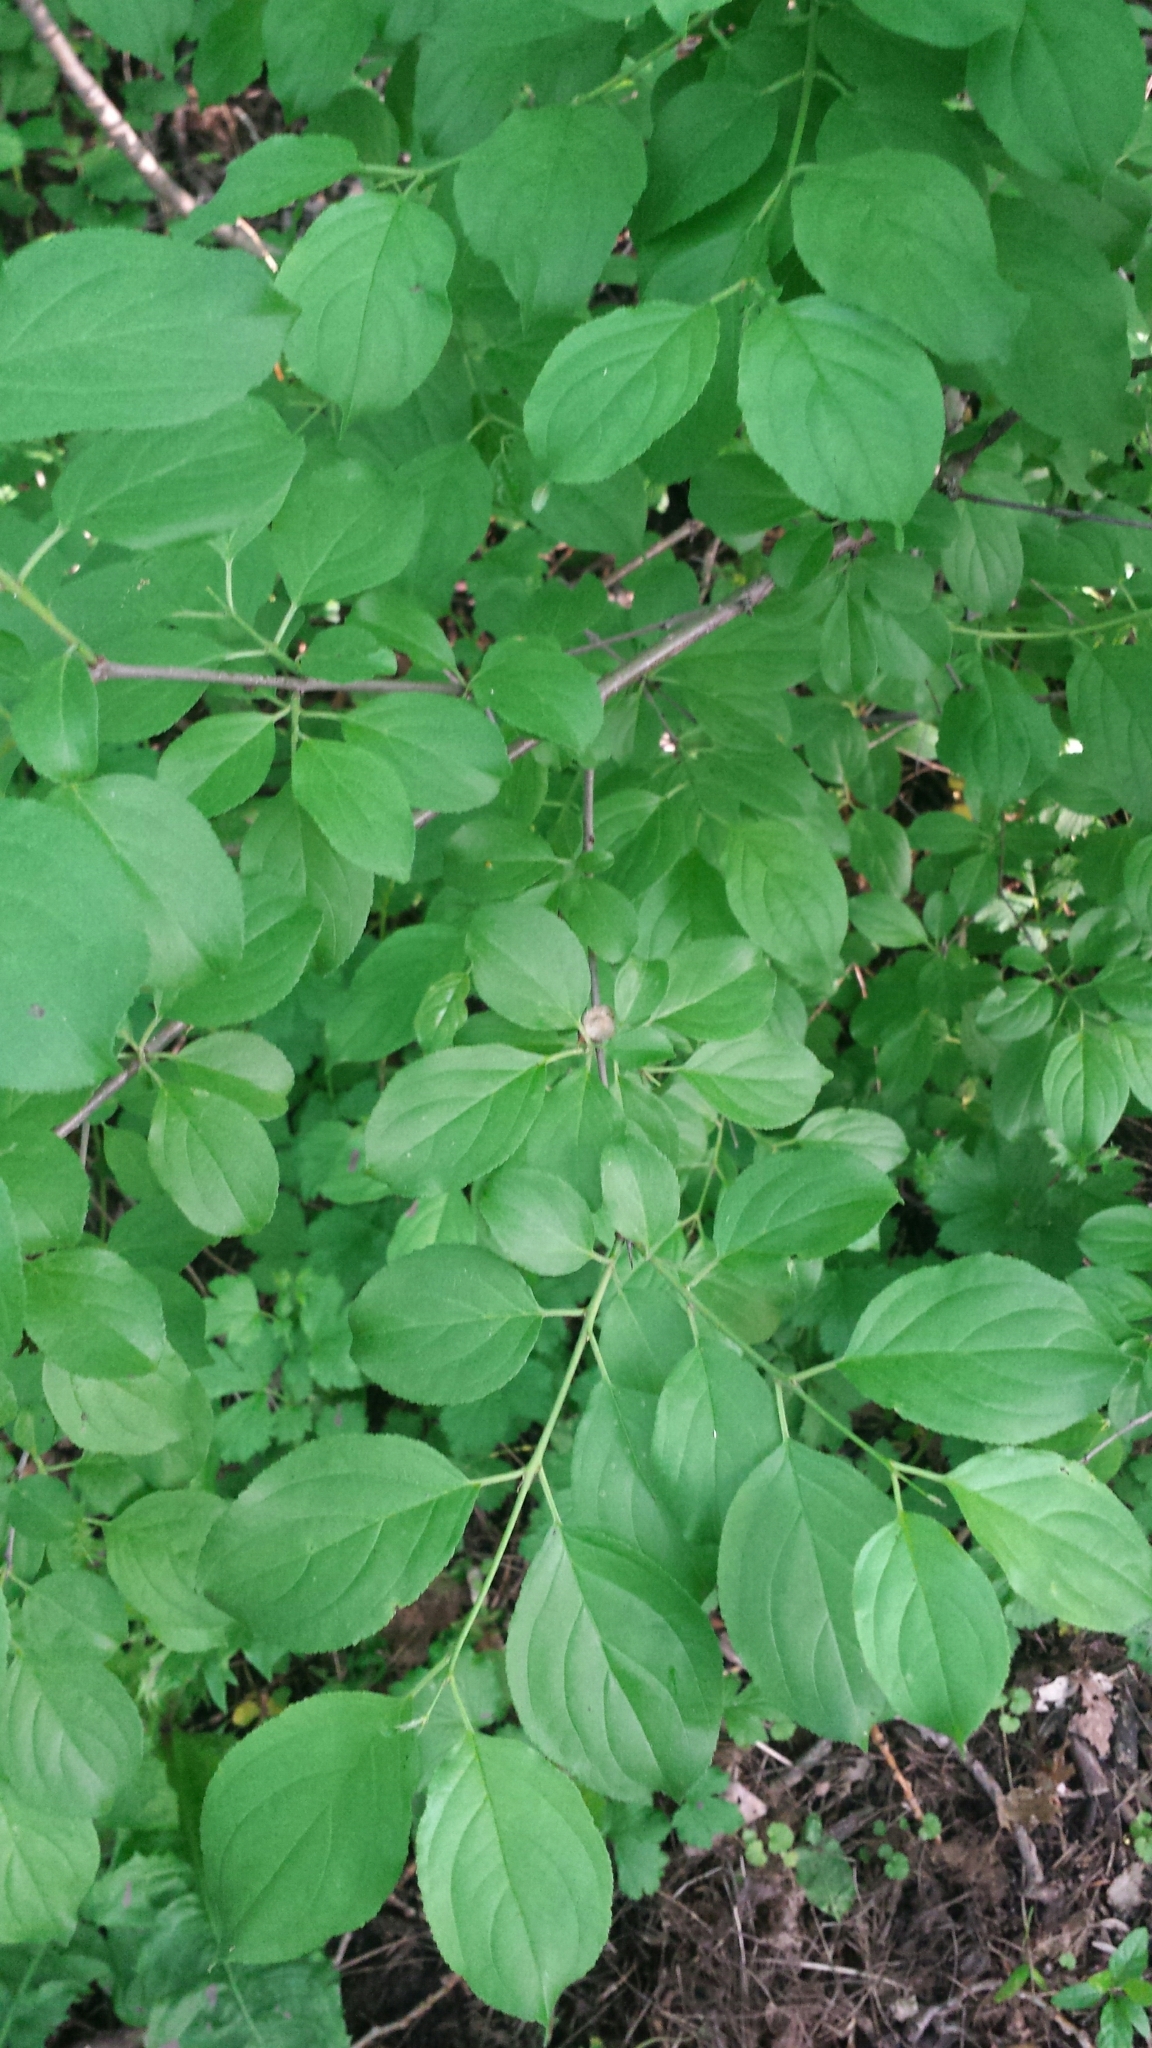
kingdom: Plantae
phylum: Tracheophyta
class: Magnoliopsida
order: Rosales
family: Rhamnaceae
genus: Rhamnus
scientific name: Rhamnus cathartica
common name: Common buckthorn
